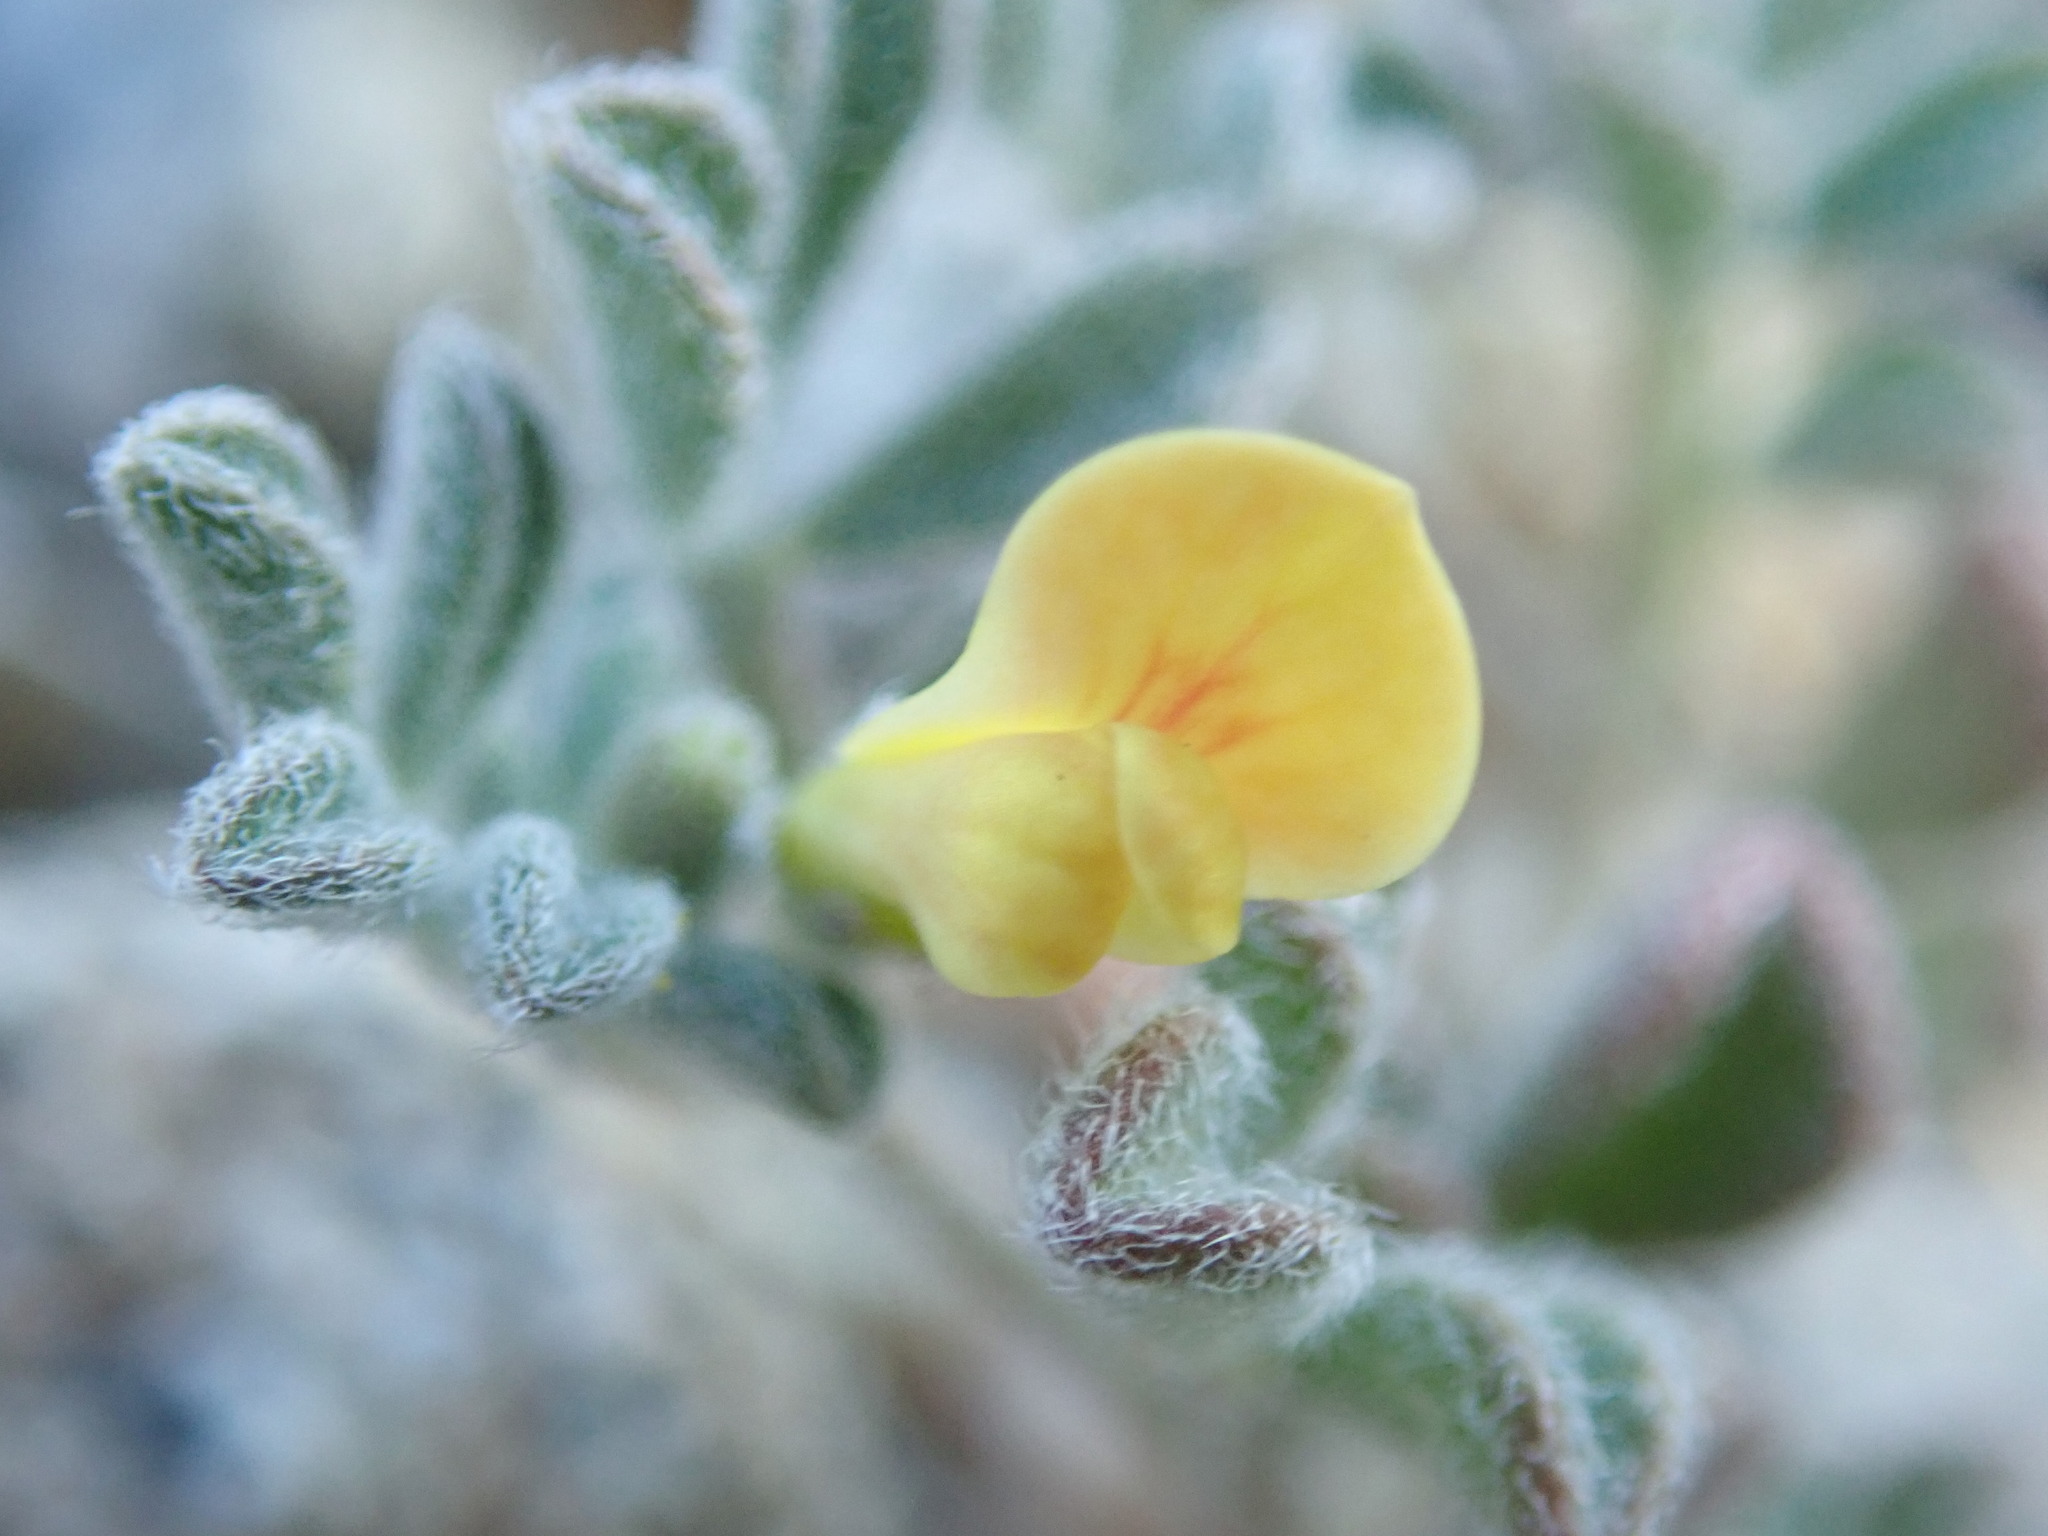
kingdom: Plantae
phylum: Tracheophyta
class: Magnoliopsida
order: Fabales
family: Fabaceae
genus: Acmispon
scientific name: Acmispon strigosus
